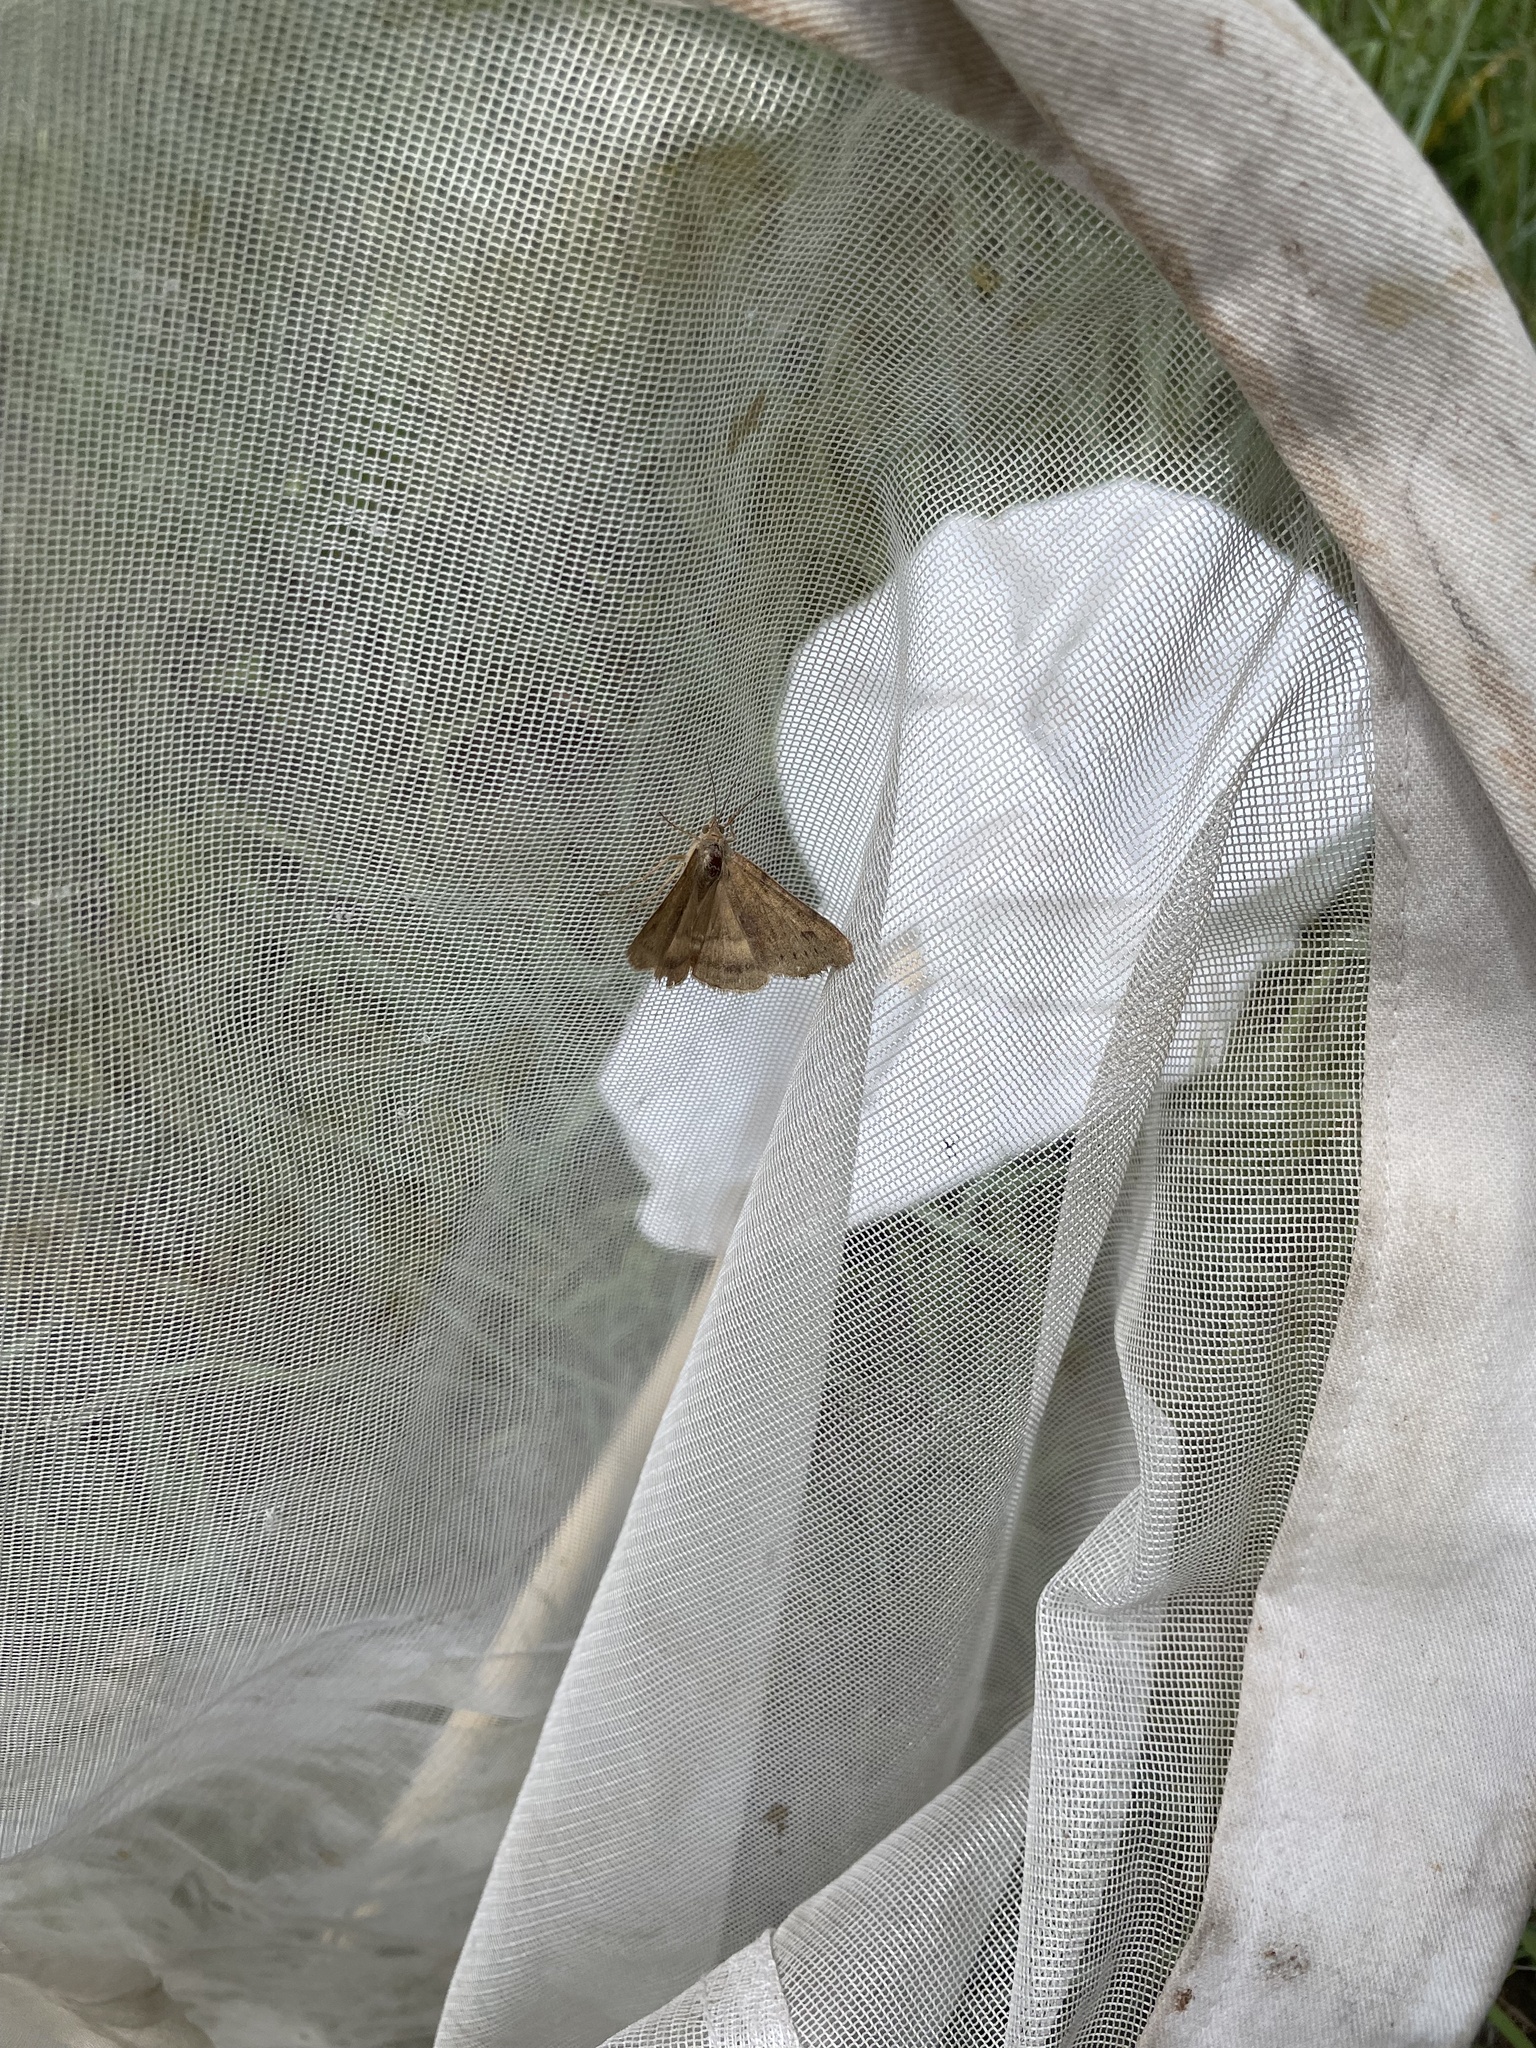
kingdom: Animalia
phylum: Arthropoda
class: Insecta
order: Lepidoptera
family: Noctuidae
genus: Helicoverpa
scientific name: Helicoverpa zea
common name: Bollworm
